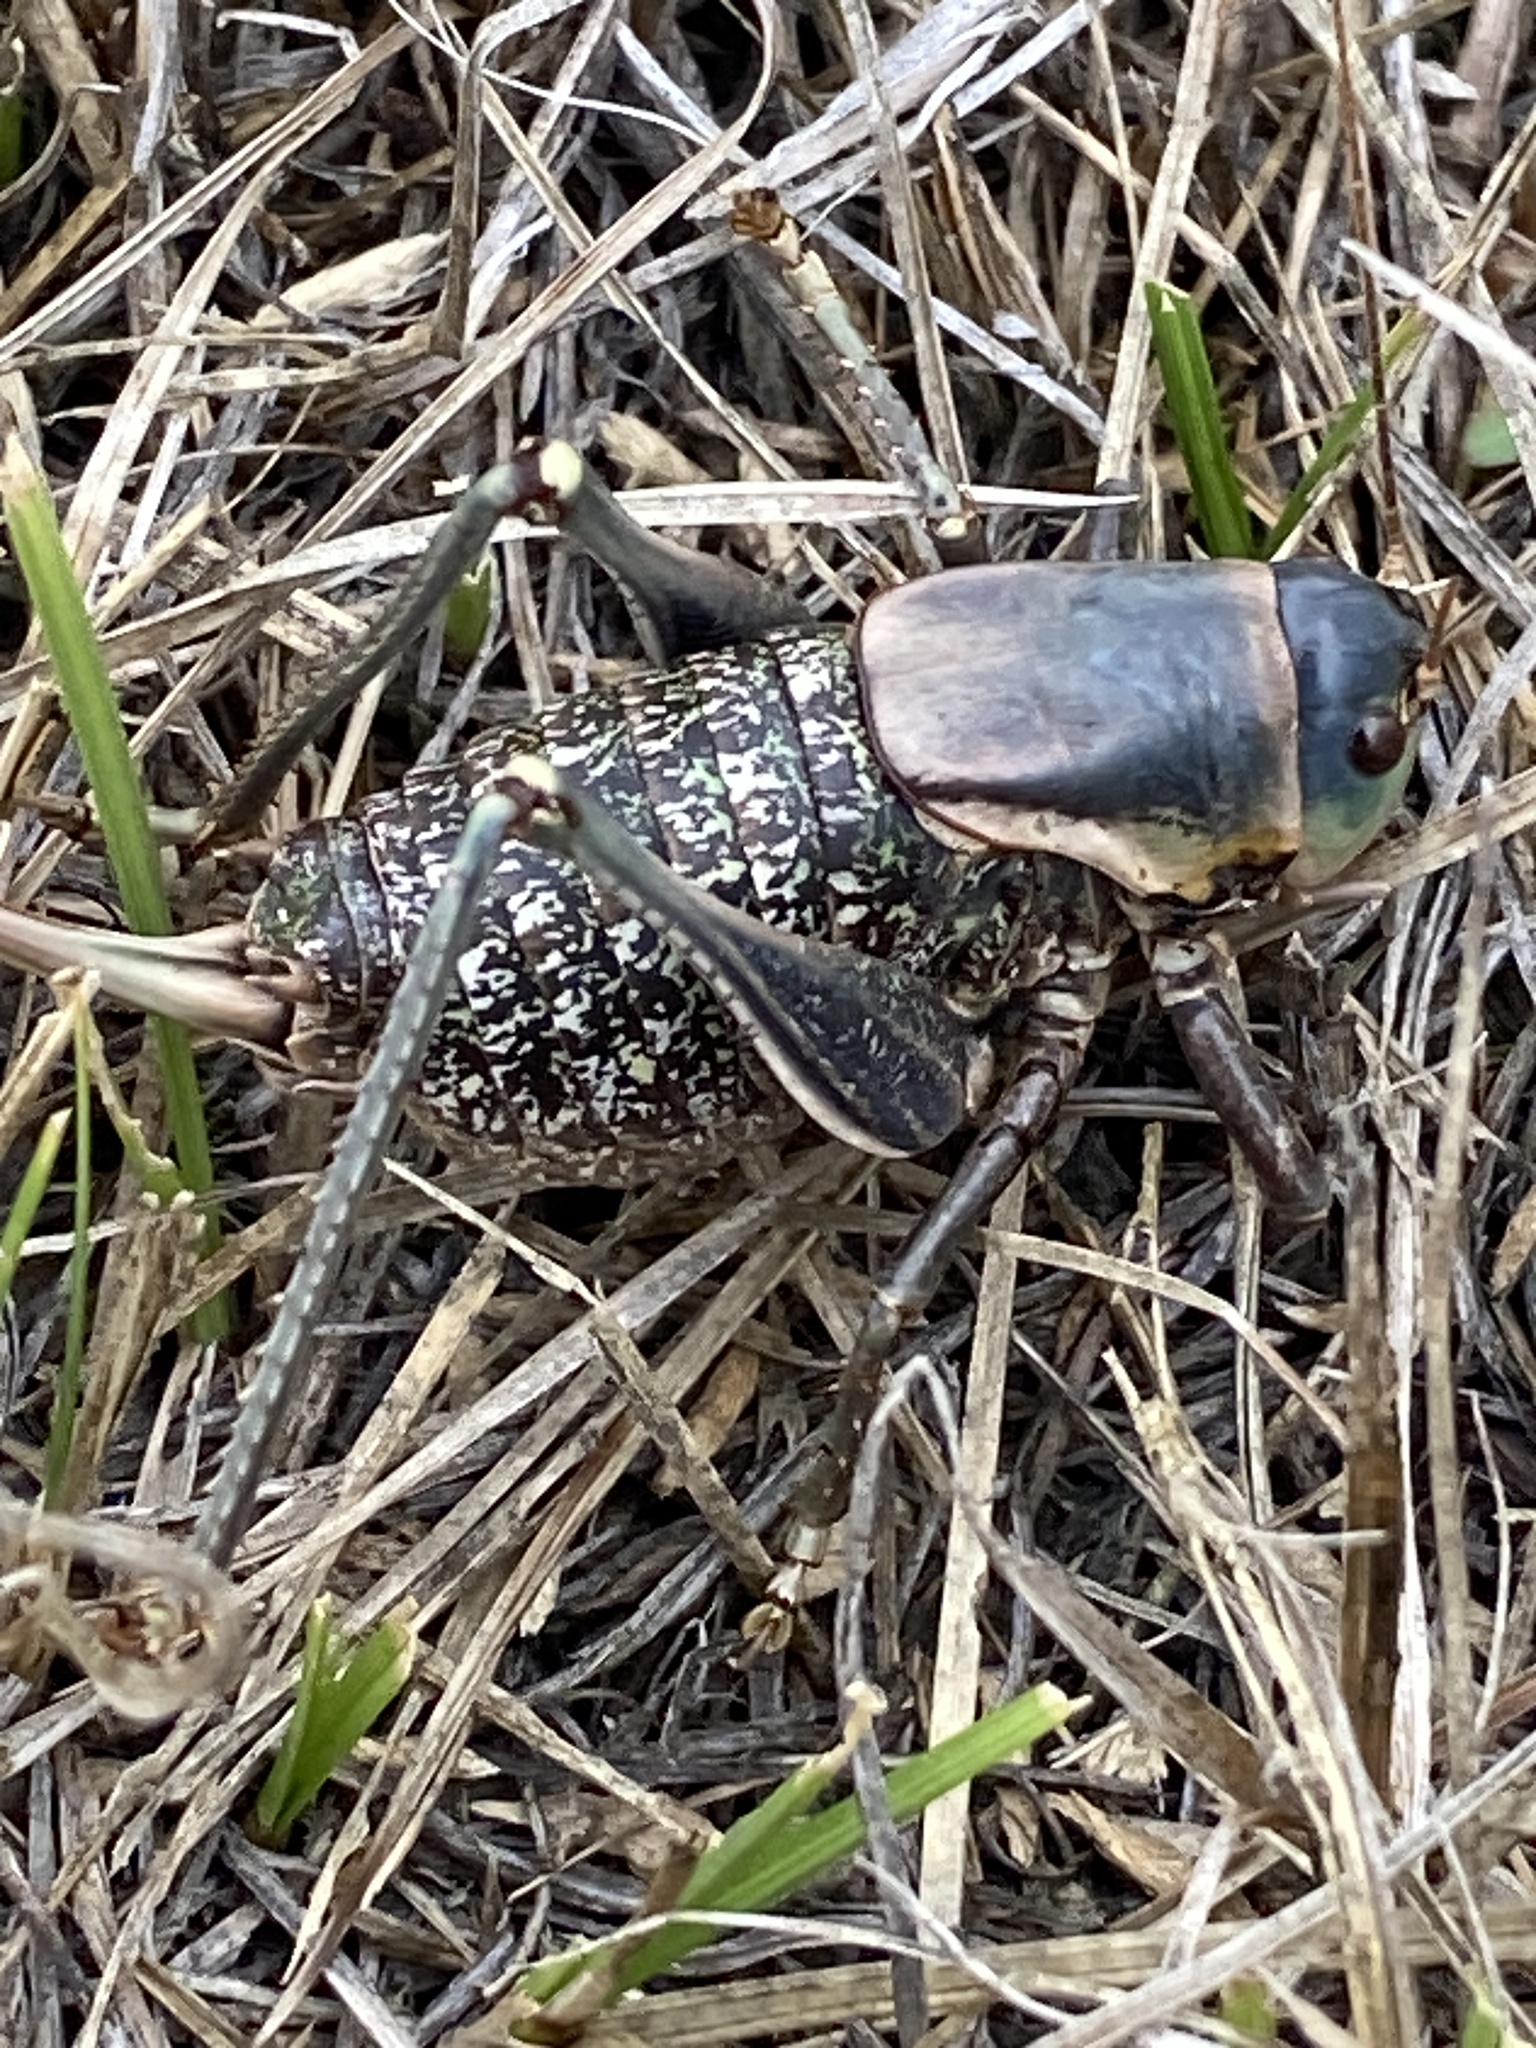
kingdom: Animalia
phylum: Arthropoda
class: Insecta
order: Orthoptera
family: Tettigoniidae
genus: Anabrus
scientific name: Anabrus simplex
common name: Mormon cricket
